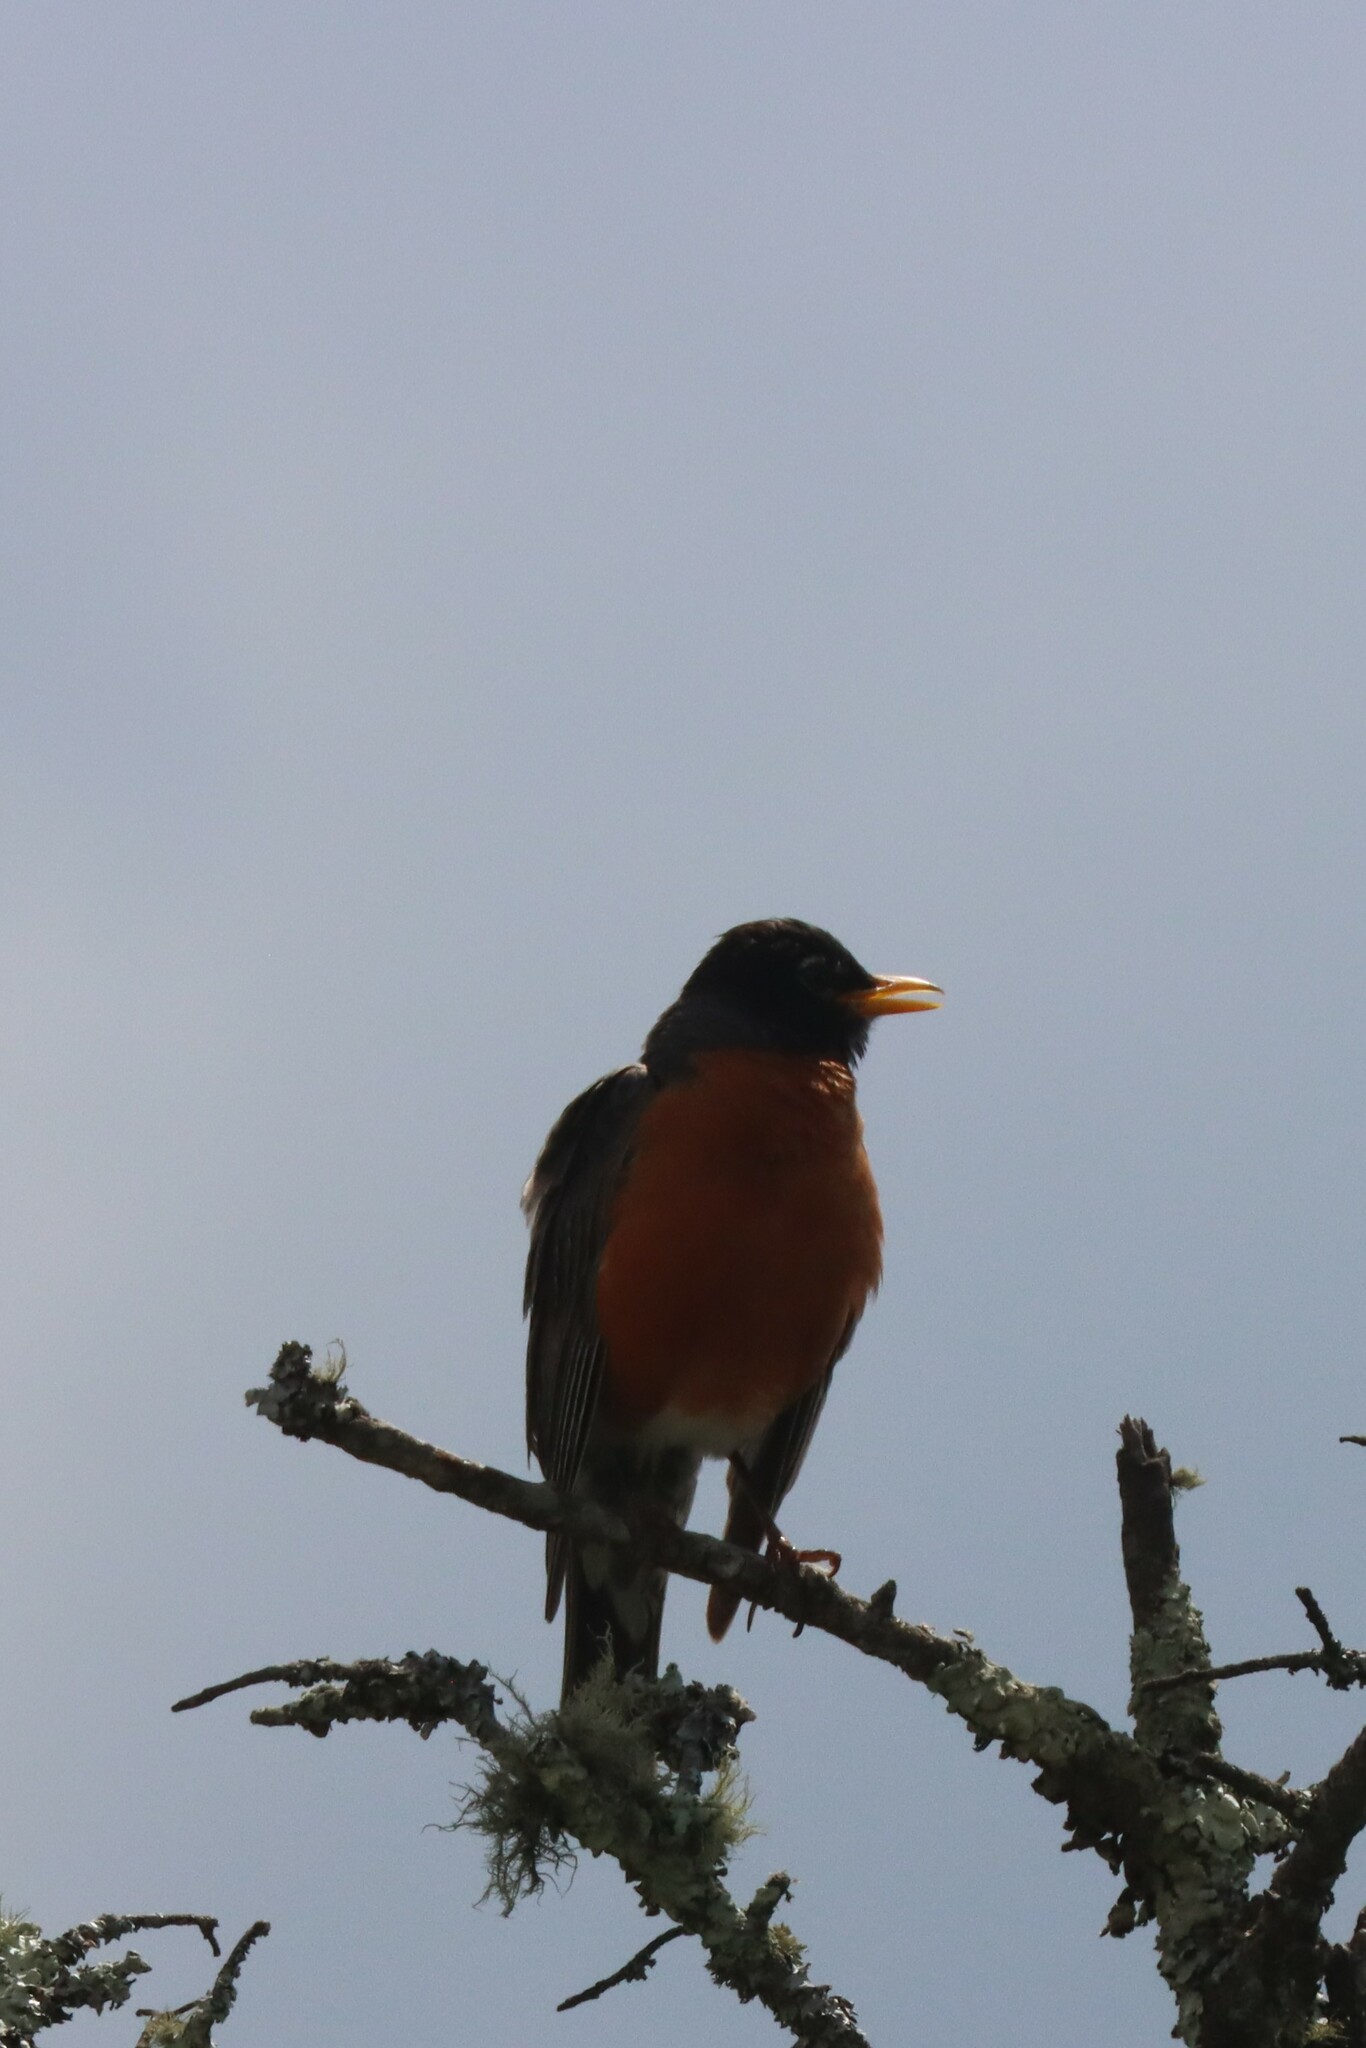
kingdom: Animalia
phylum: Chordata
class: Aves
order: Passeriformes
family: Turdidae
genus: Turdus
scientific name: Turdus migratorius
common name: American robin
